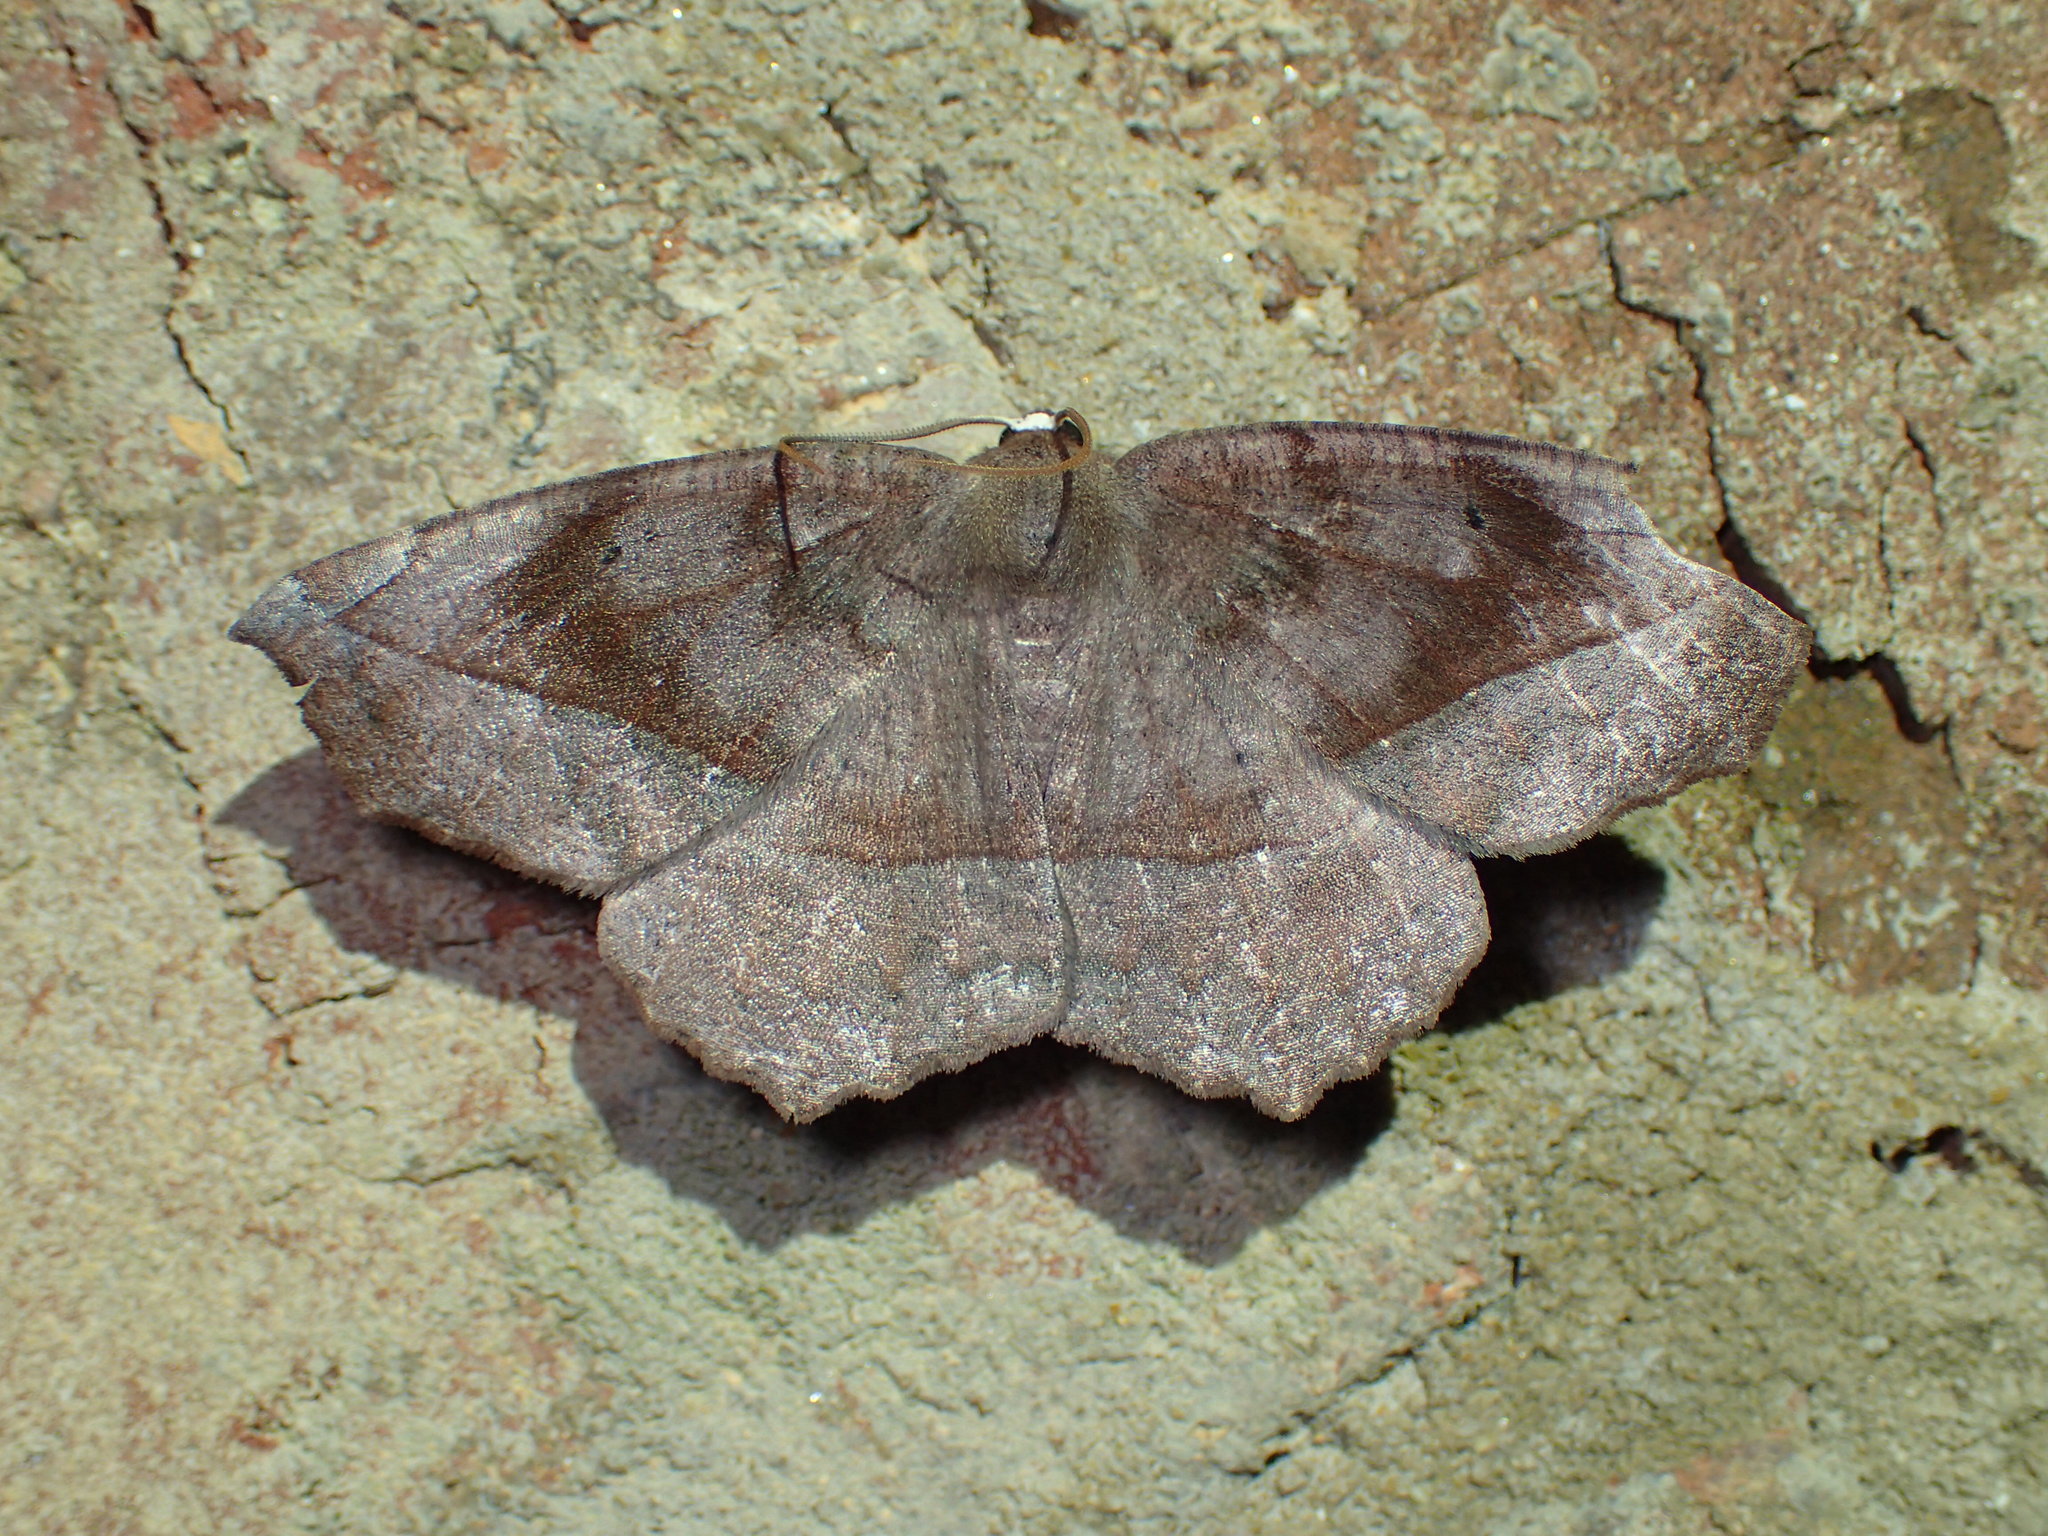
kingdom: Animalia
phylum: Arthropoda
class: Insecta
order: Lepidoptera
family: Geometridae
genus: Eutrapela
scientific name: Eutrapela clemataria
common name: Curved-toothed geometer
